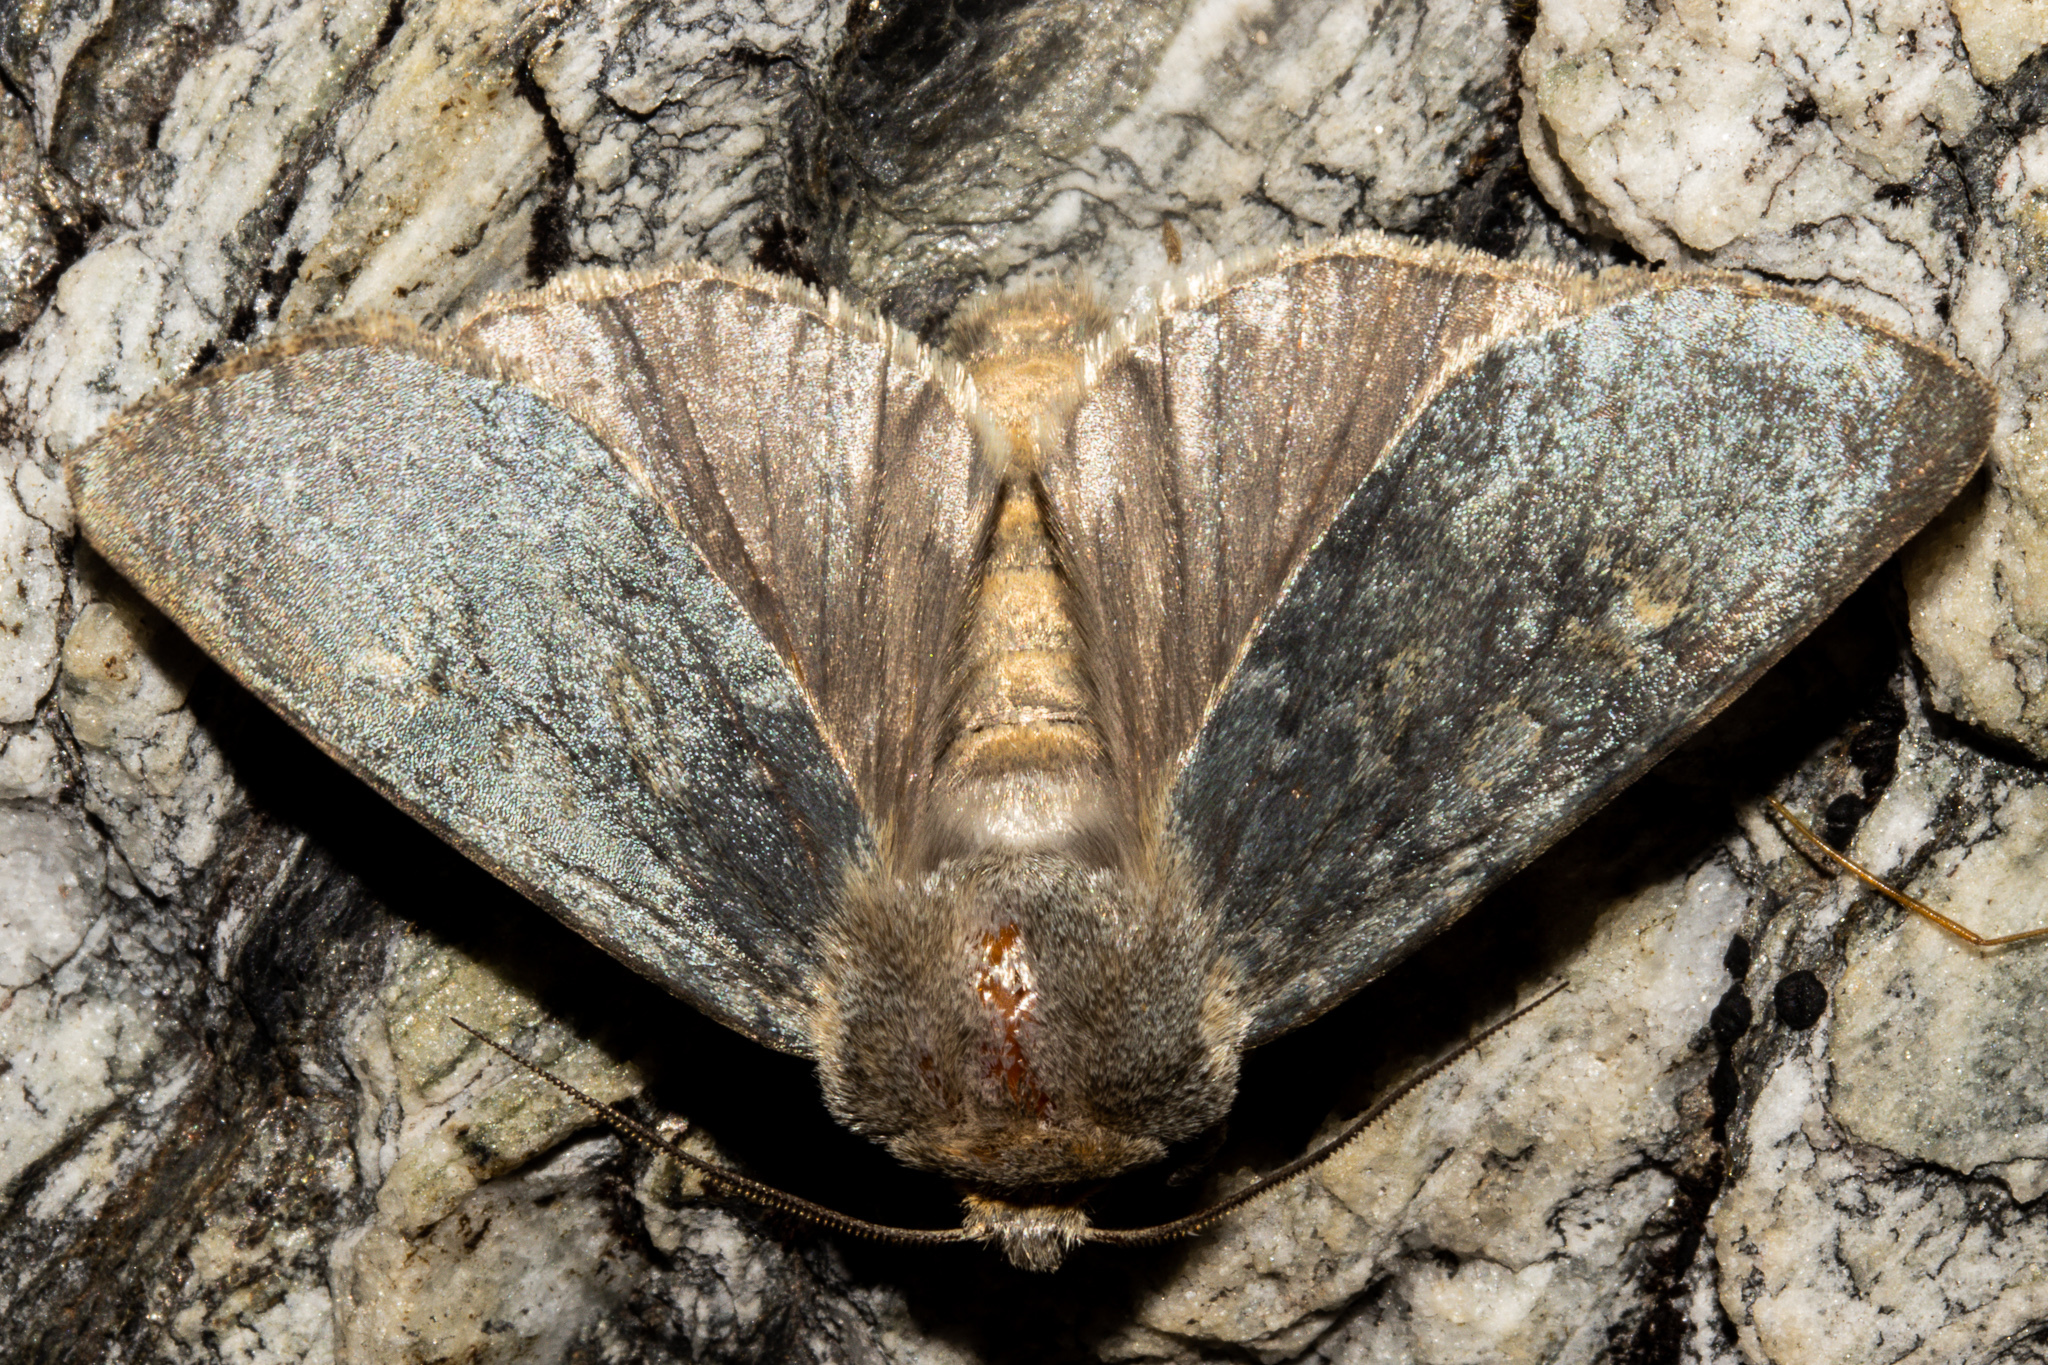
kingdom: Animalia
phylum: Arthropoda
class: Insecta
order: Lepidoptera
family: Noctuidae
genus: Ichneutica
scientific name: Ichneutica
